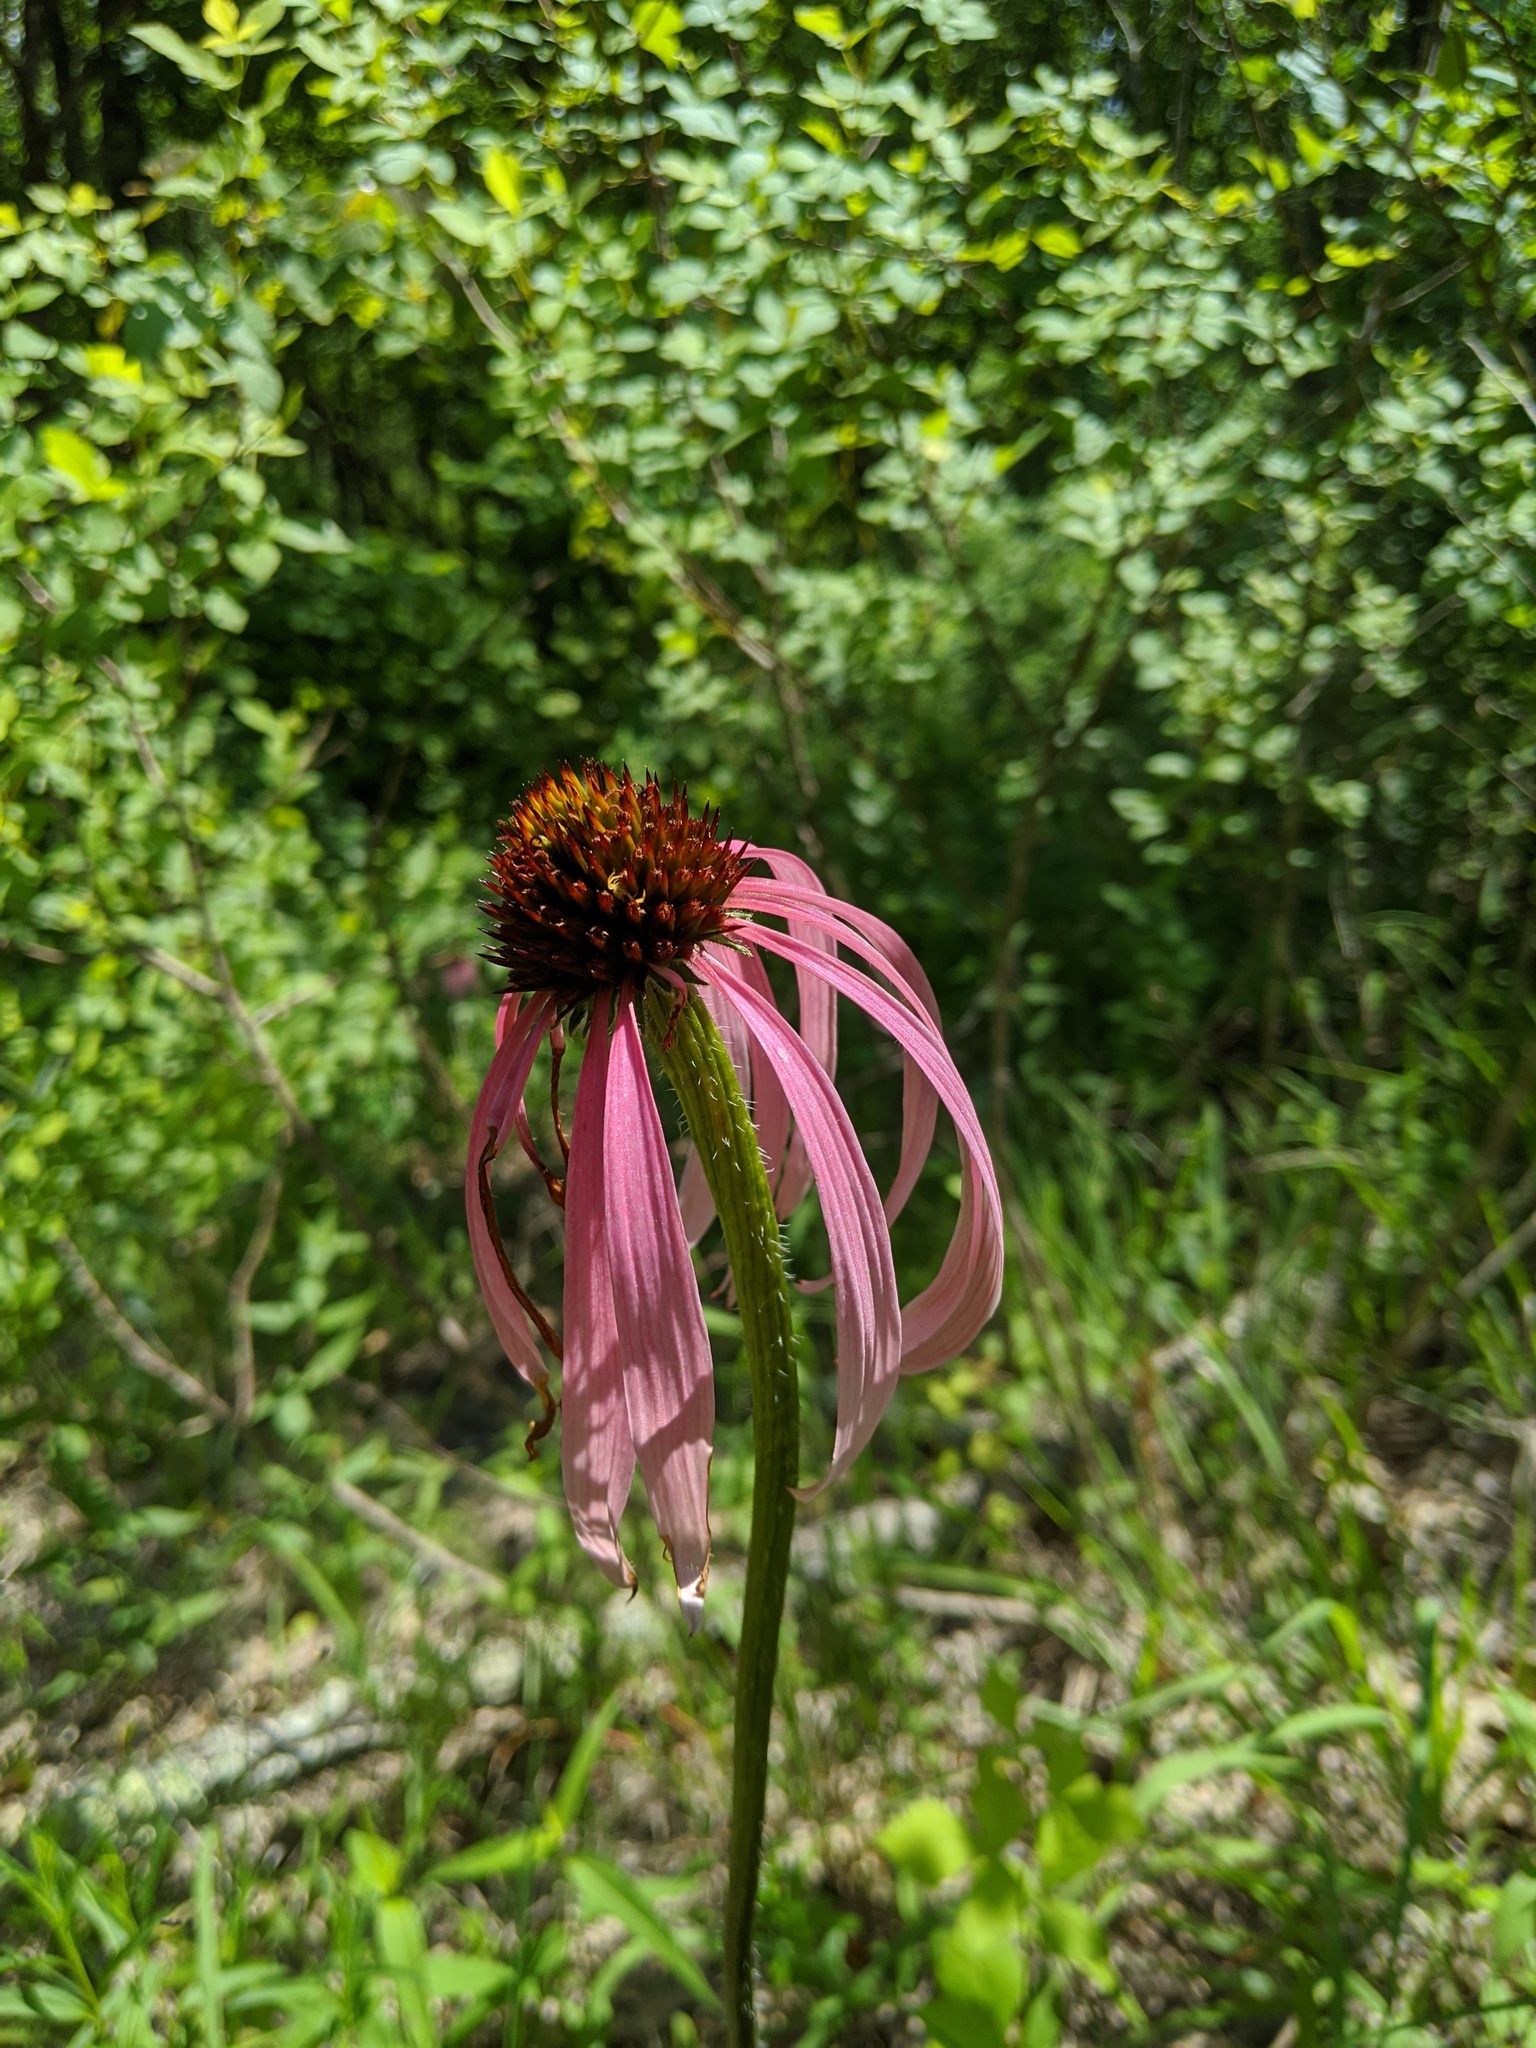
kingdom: Plantae
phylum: Tracheophyta
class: Magnoliopsida
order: Asterales
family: Asteraceae
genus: Echinacea
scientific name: Echinacea simulata
